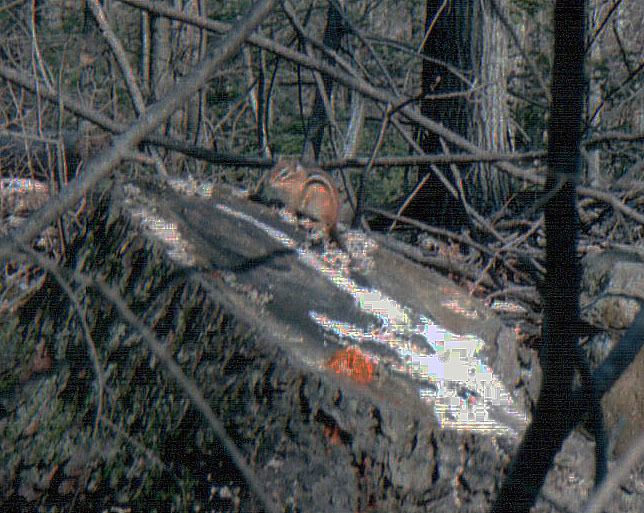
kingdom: Animalia
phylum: Chordata
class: Mammalia
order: Rodentia
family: Sciuridae
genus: Tamias
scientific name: Tamias striatus
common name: Eastern chipmunk
